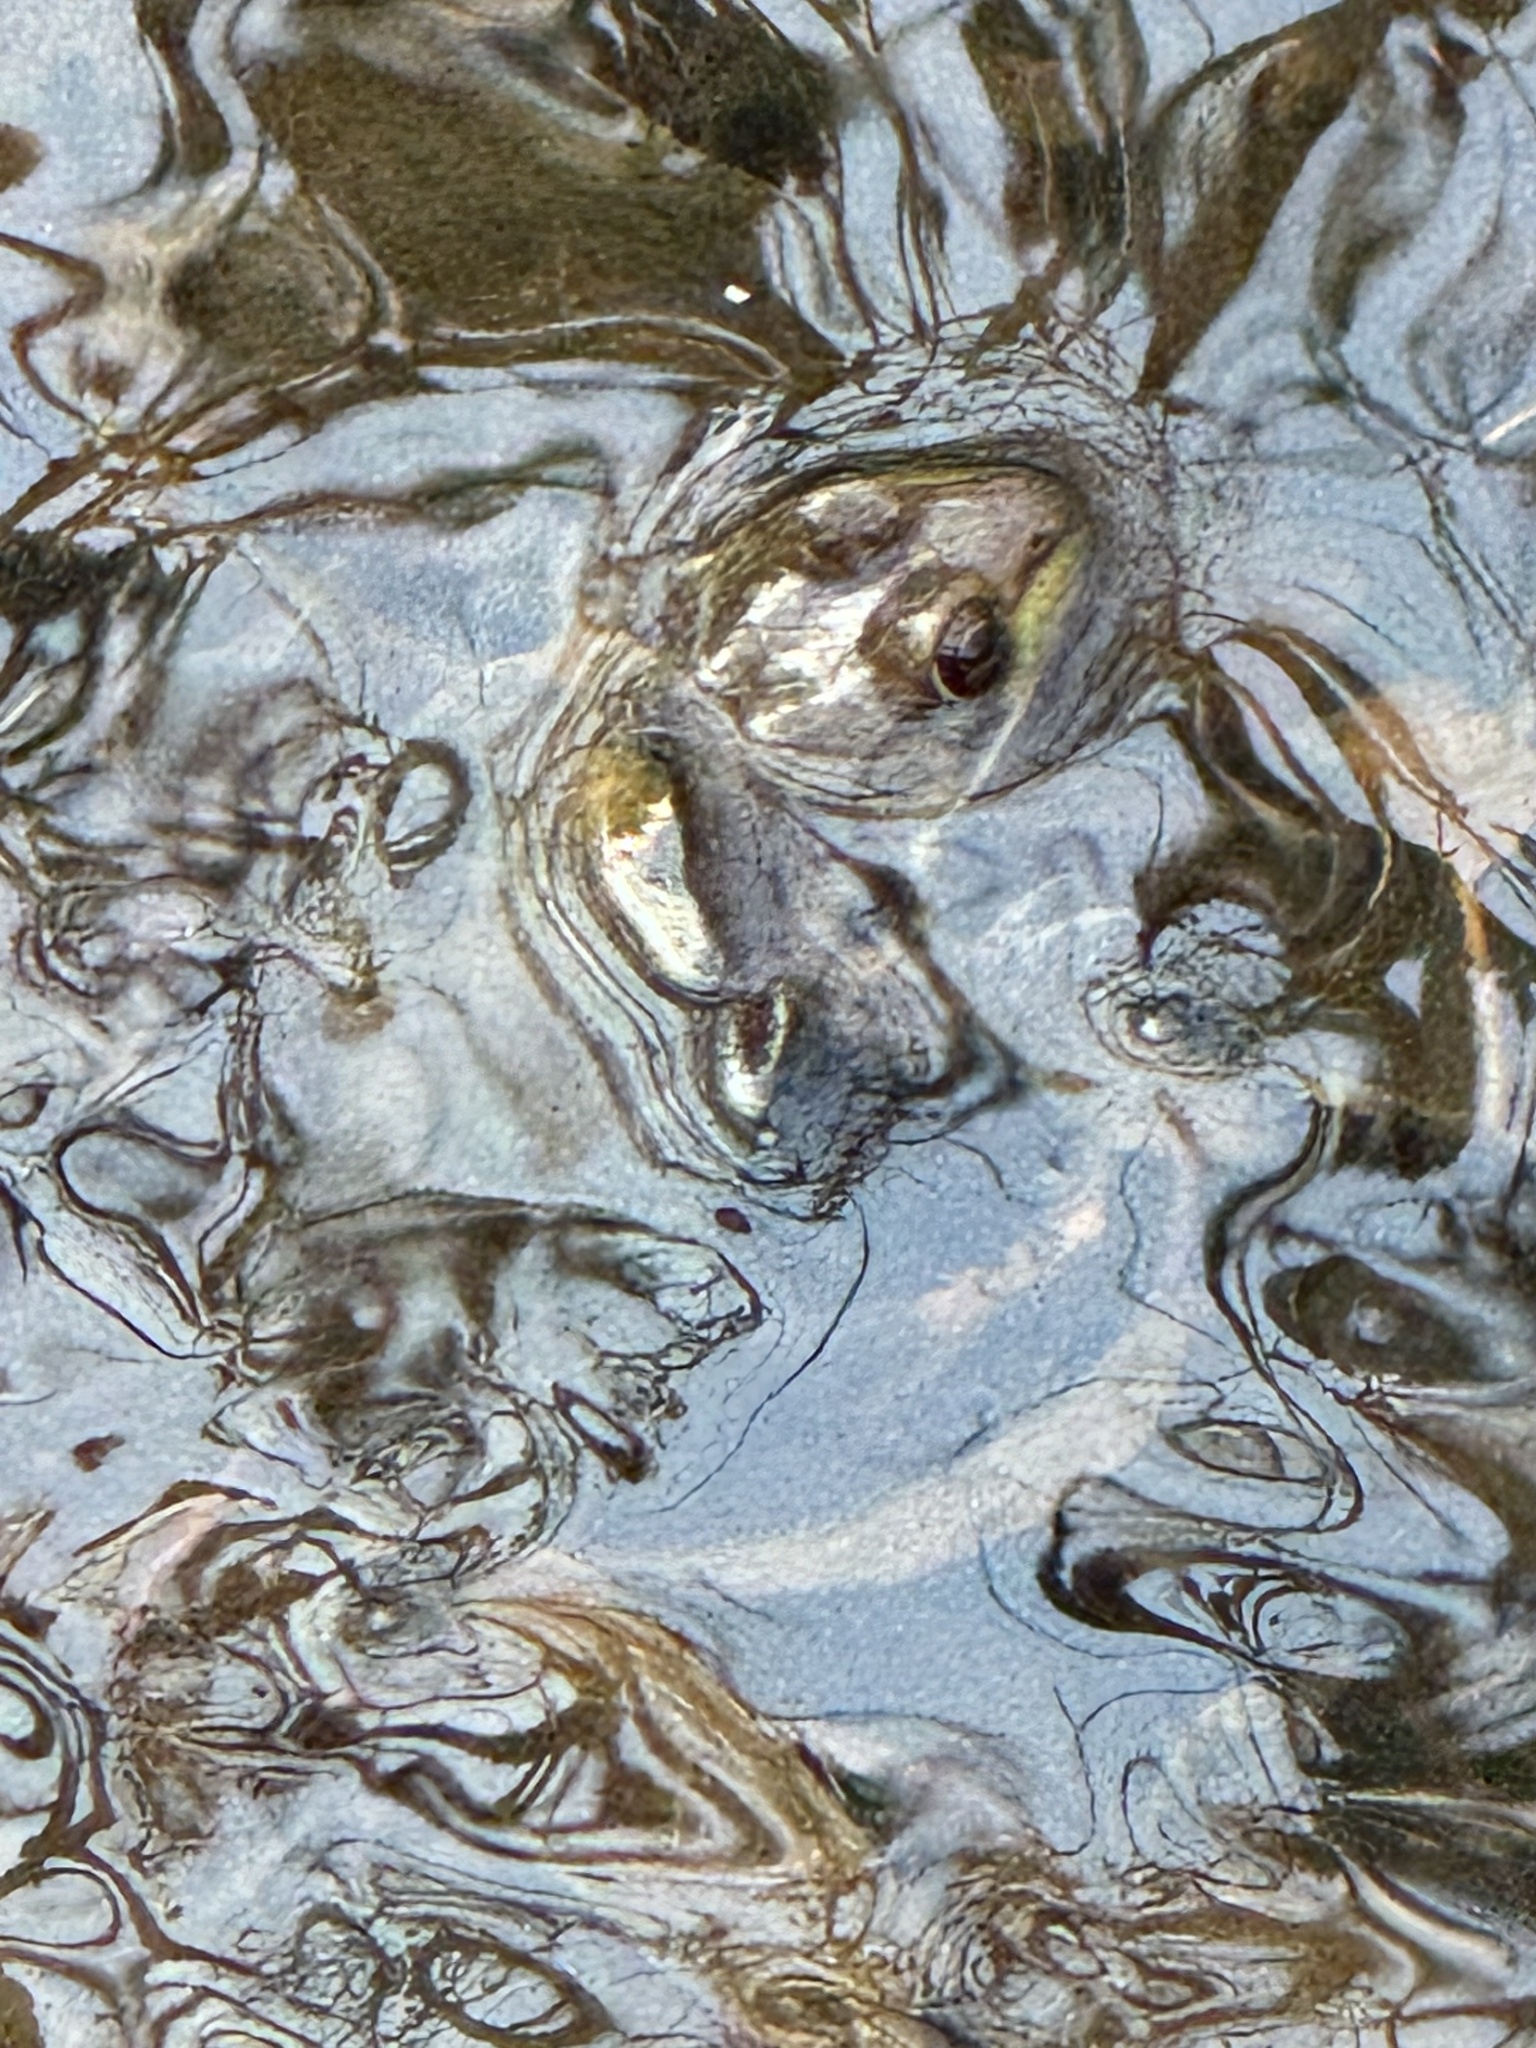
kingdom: Animalia
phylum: Chordata
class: Amphibia
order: Anura
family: Ranidae
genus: Lithobates
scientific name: Lithobates clamitans
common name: Green frog
